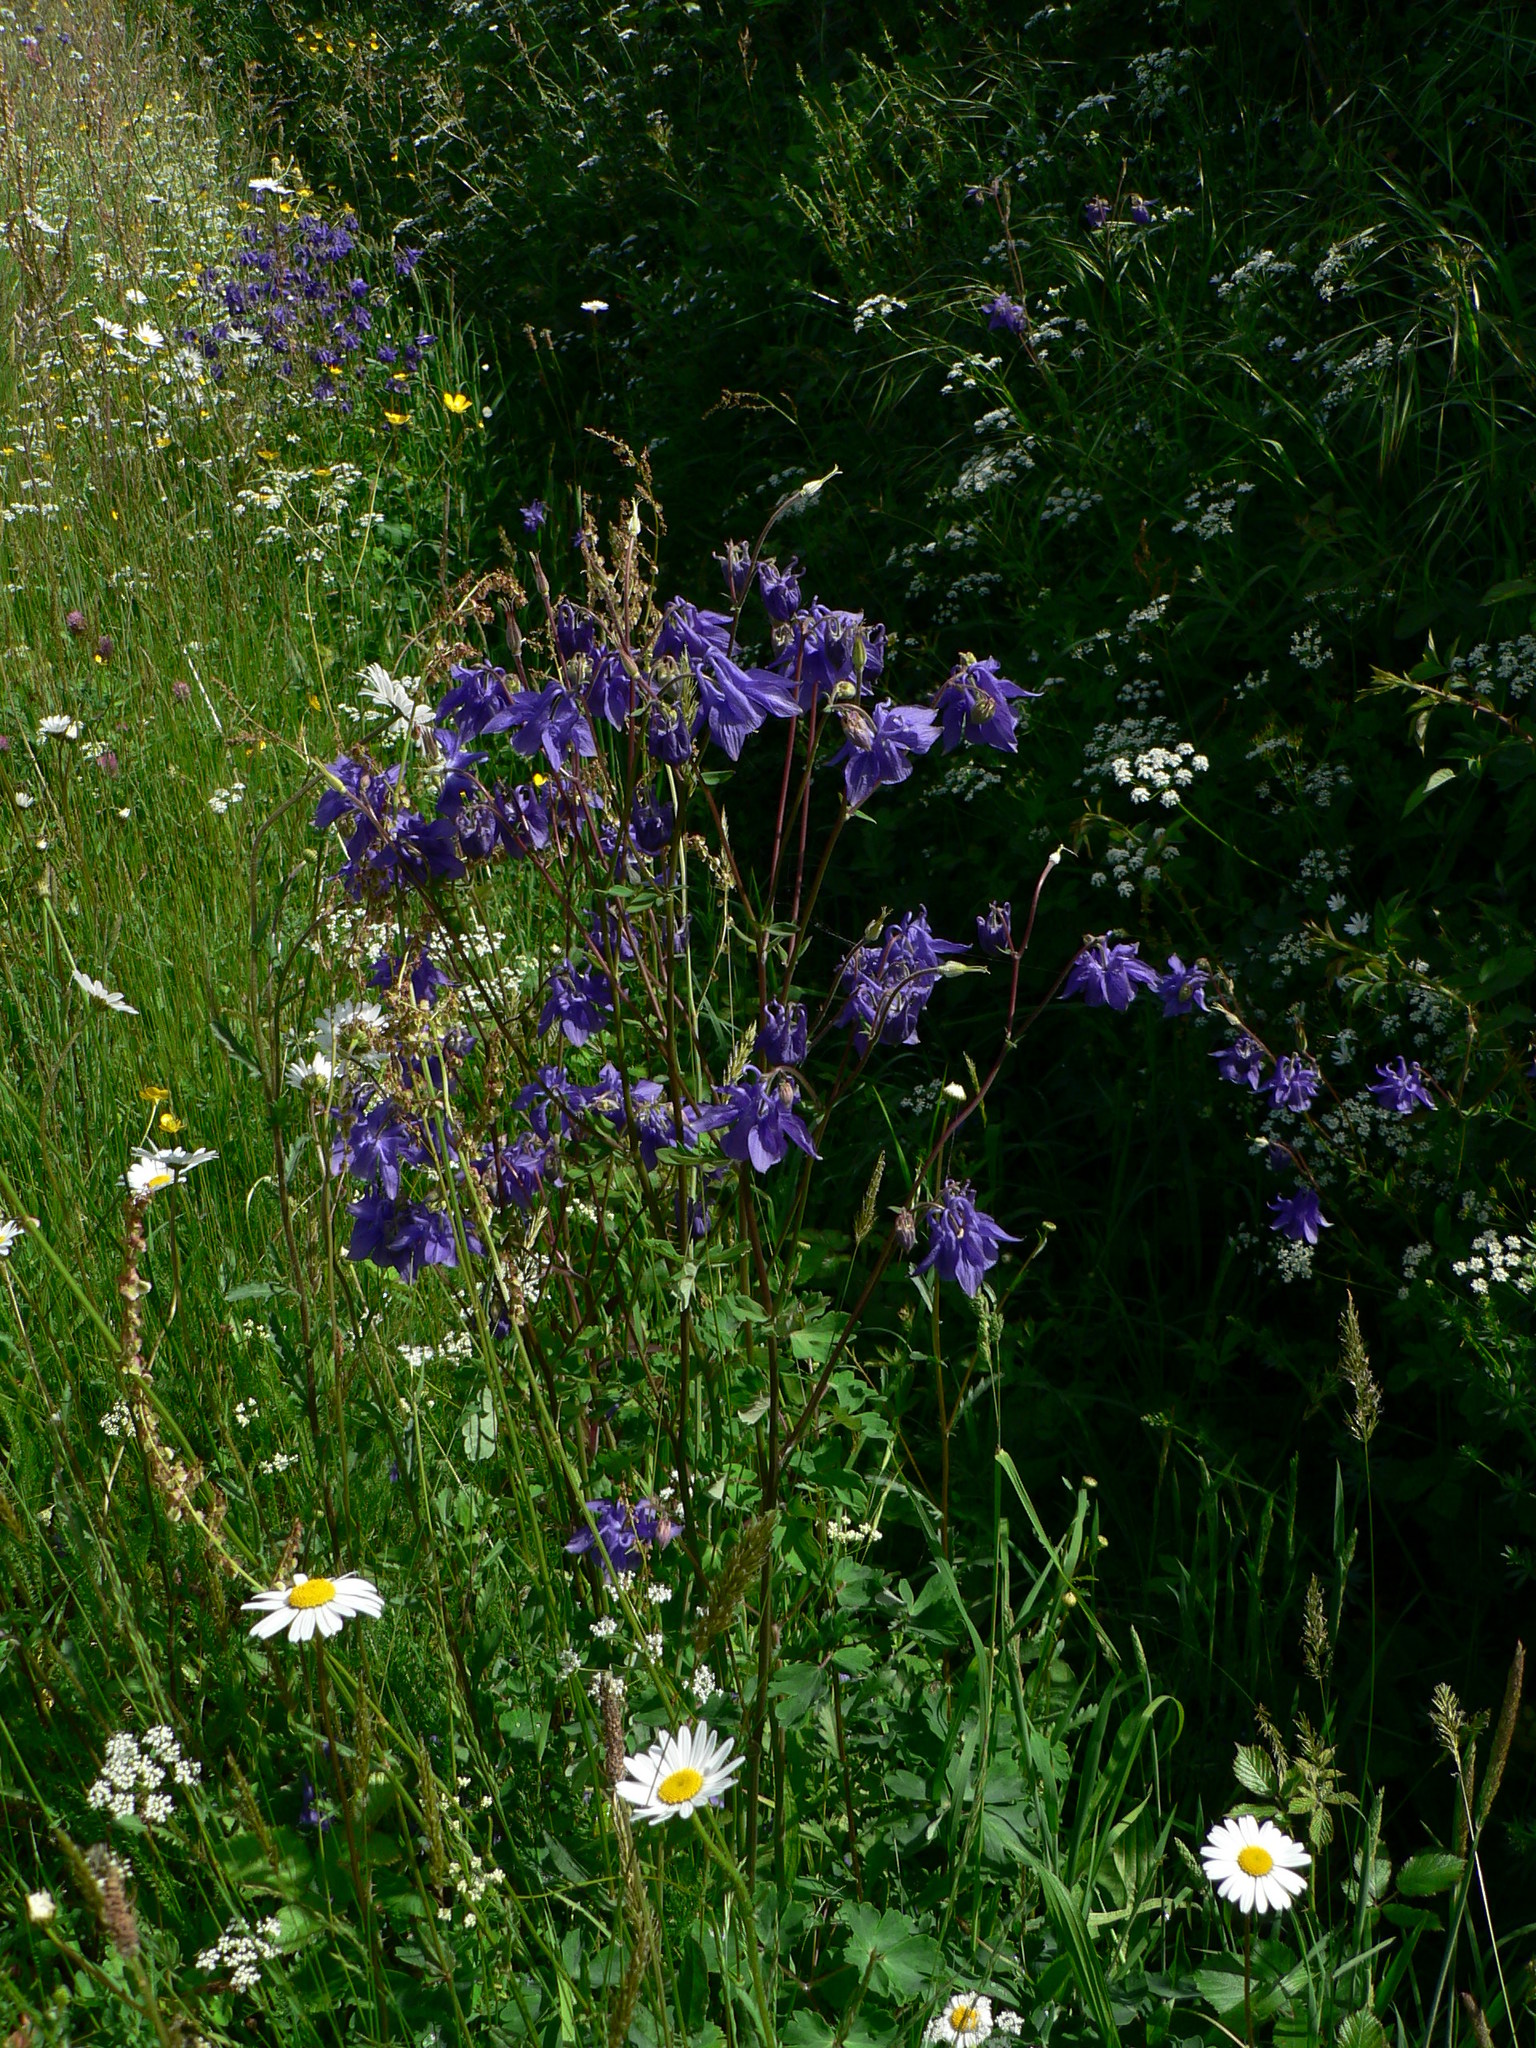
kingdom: Plantae
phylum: Tracheophyta
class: Magnoliopsida
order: Ranunculales
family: Ranunculaceae
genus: Aquilegia
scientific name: Aquilegia vulgaris
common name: Columbine
